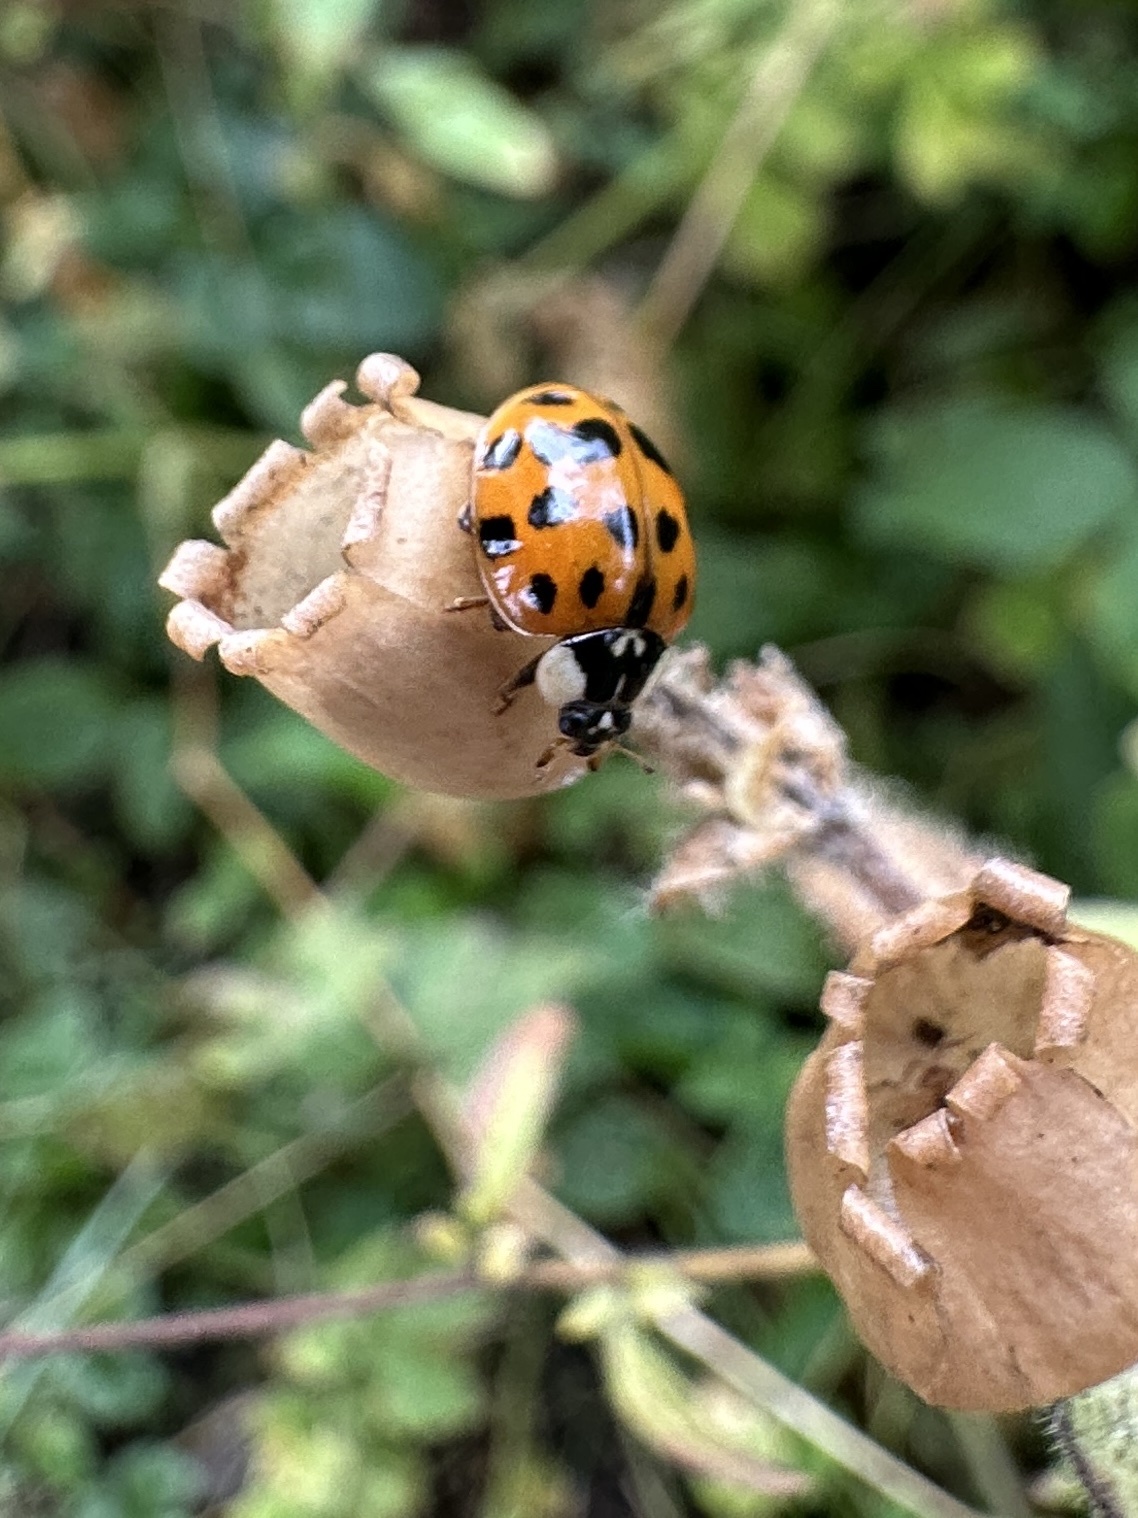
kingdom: Animalia
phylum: Arthropoda
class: Insecta
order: Coleoptera
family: Coccinellidae
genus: Harmonia
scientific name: Harmonia axyridis
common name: Harlequin ladybird
